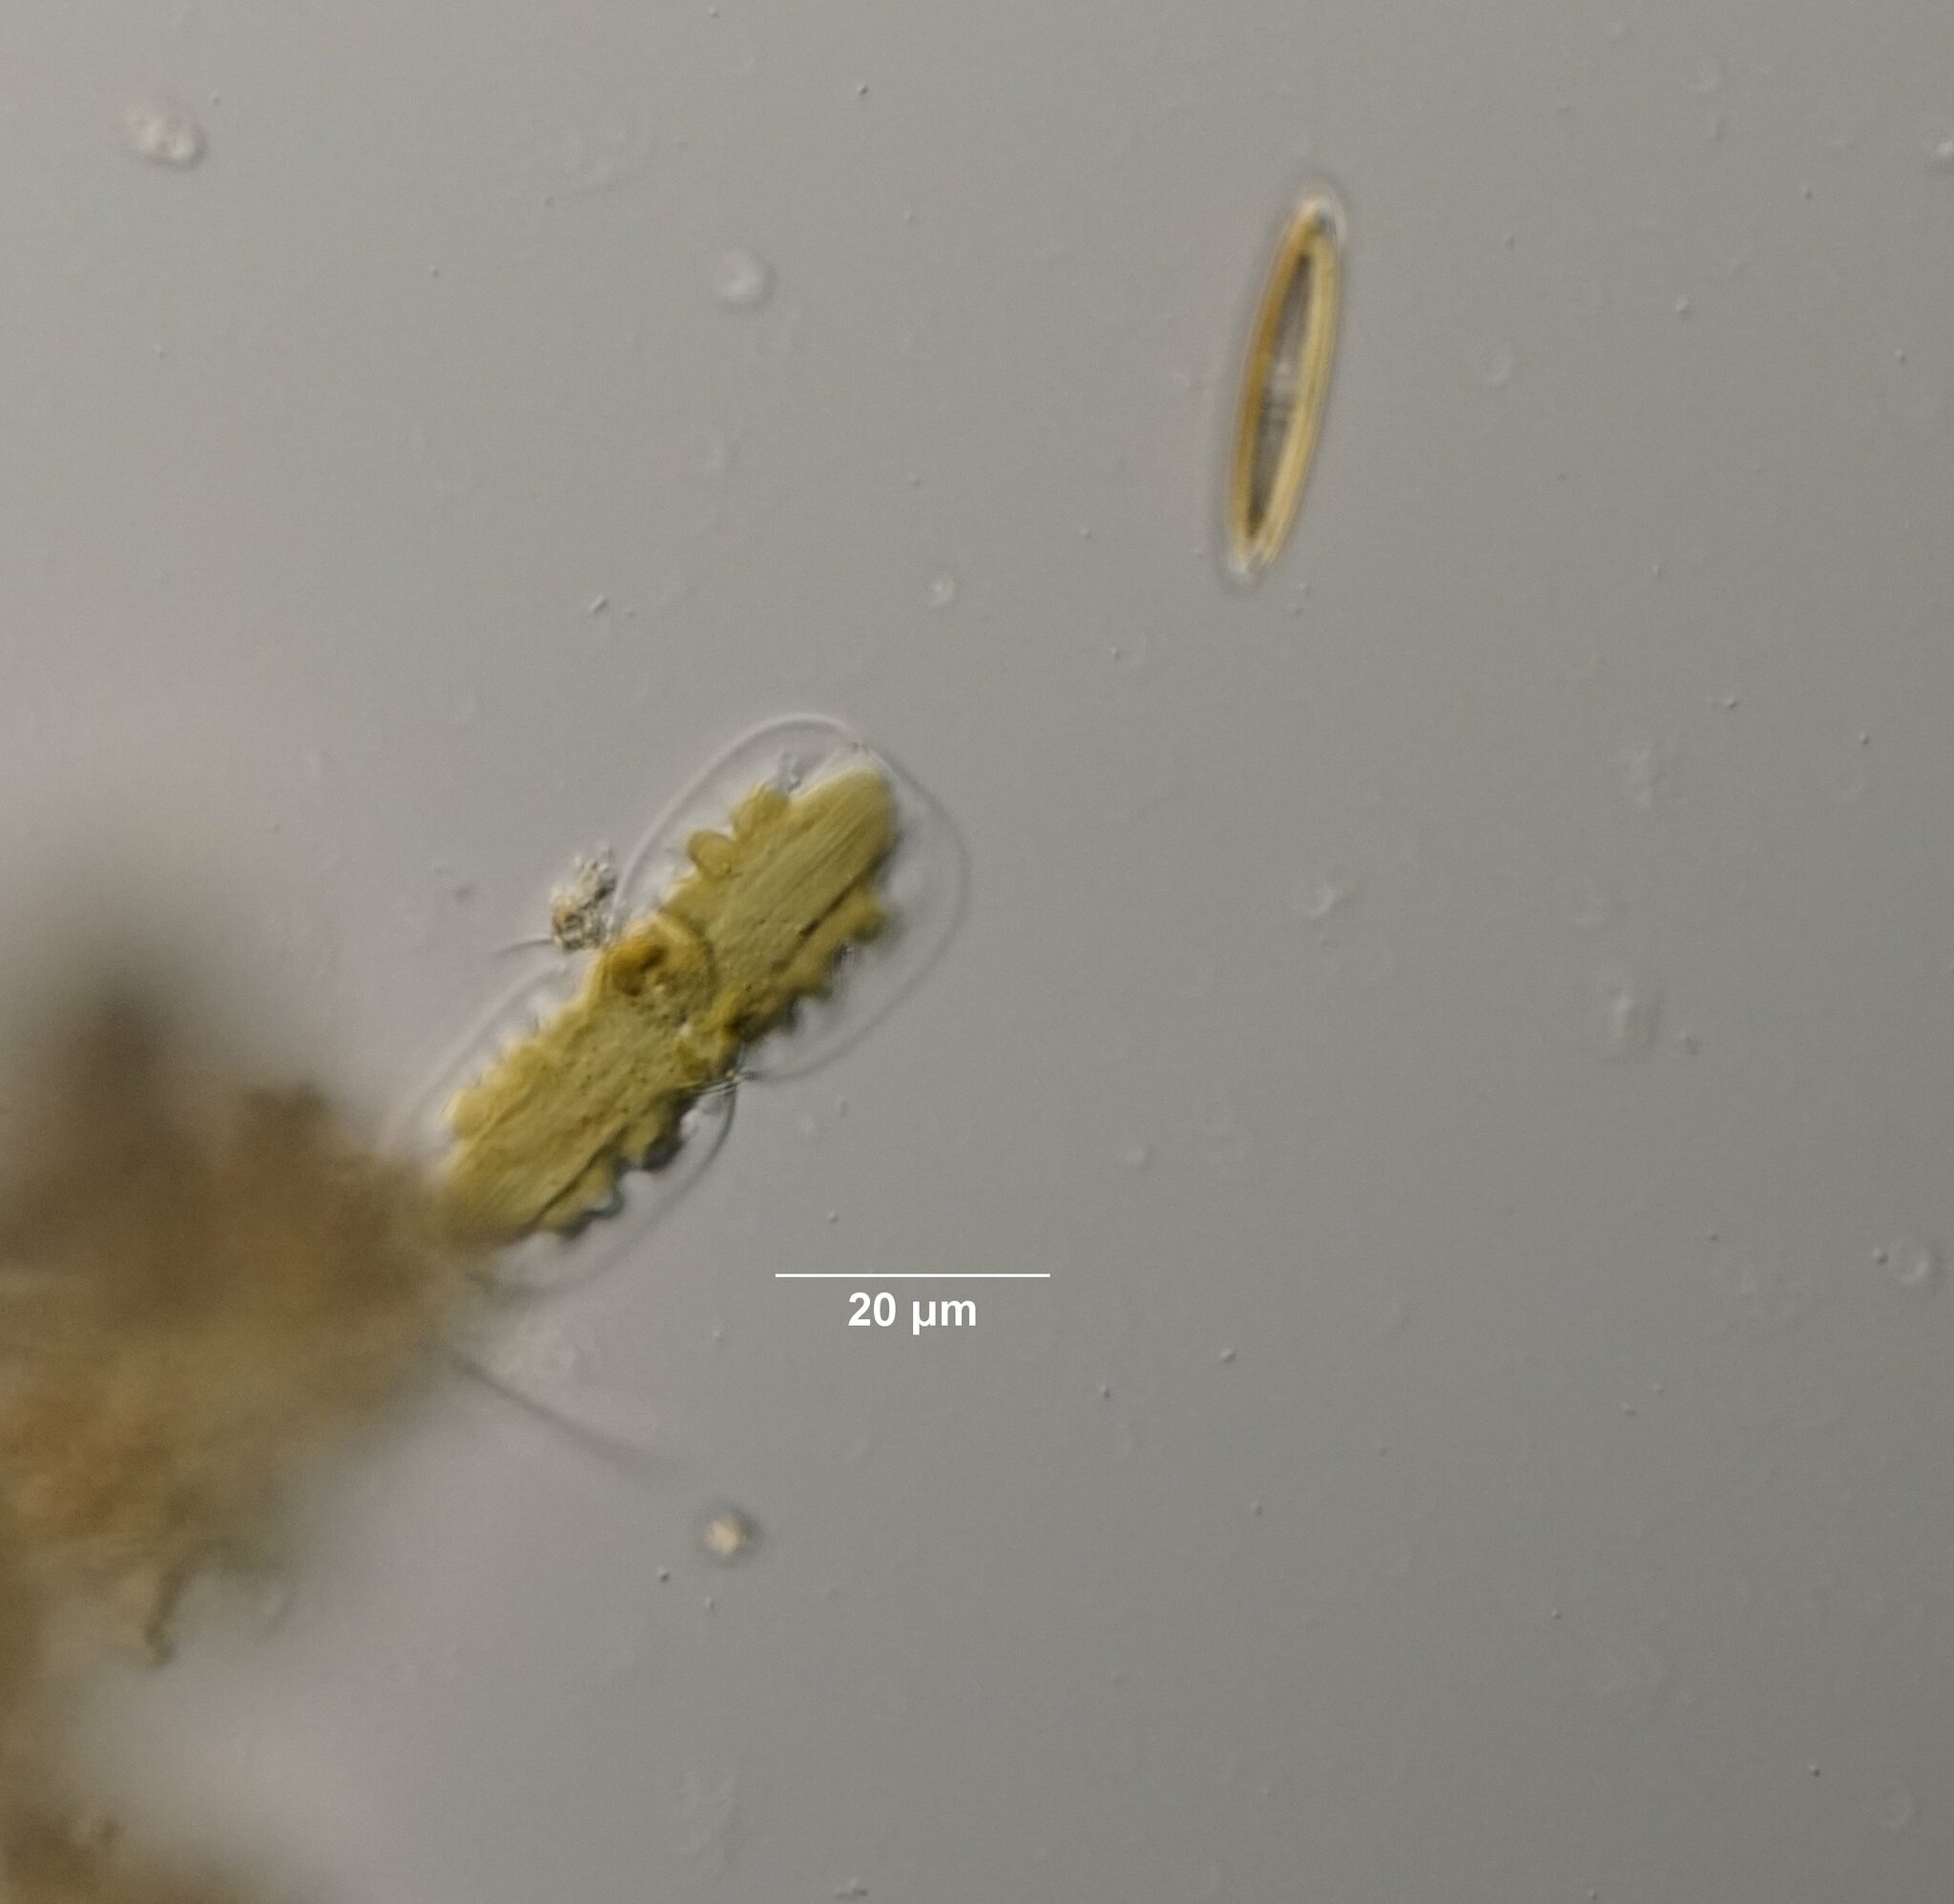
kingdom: Chromista
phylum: Ochrophyta
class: Bacillariophyceae
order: Surirellales
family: Entomoneidaceae
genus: Entomoneis
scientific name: Entomoneis ornata
